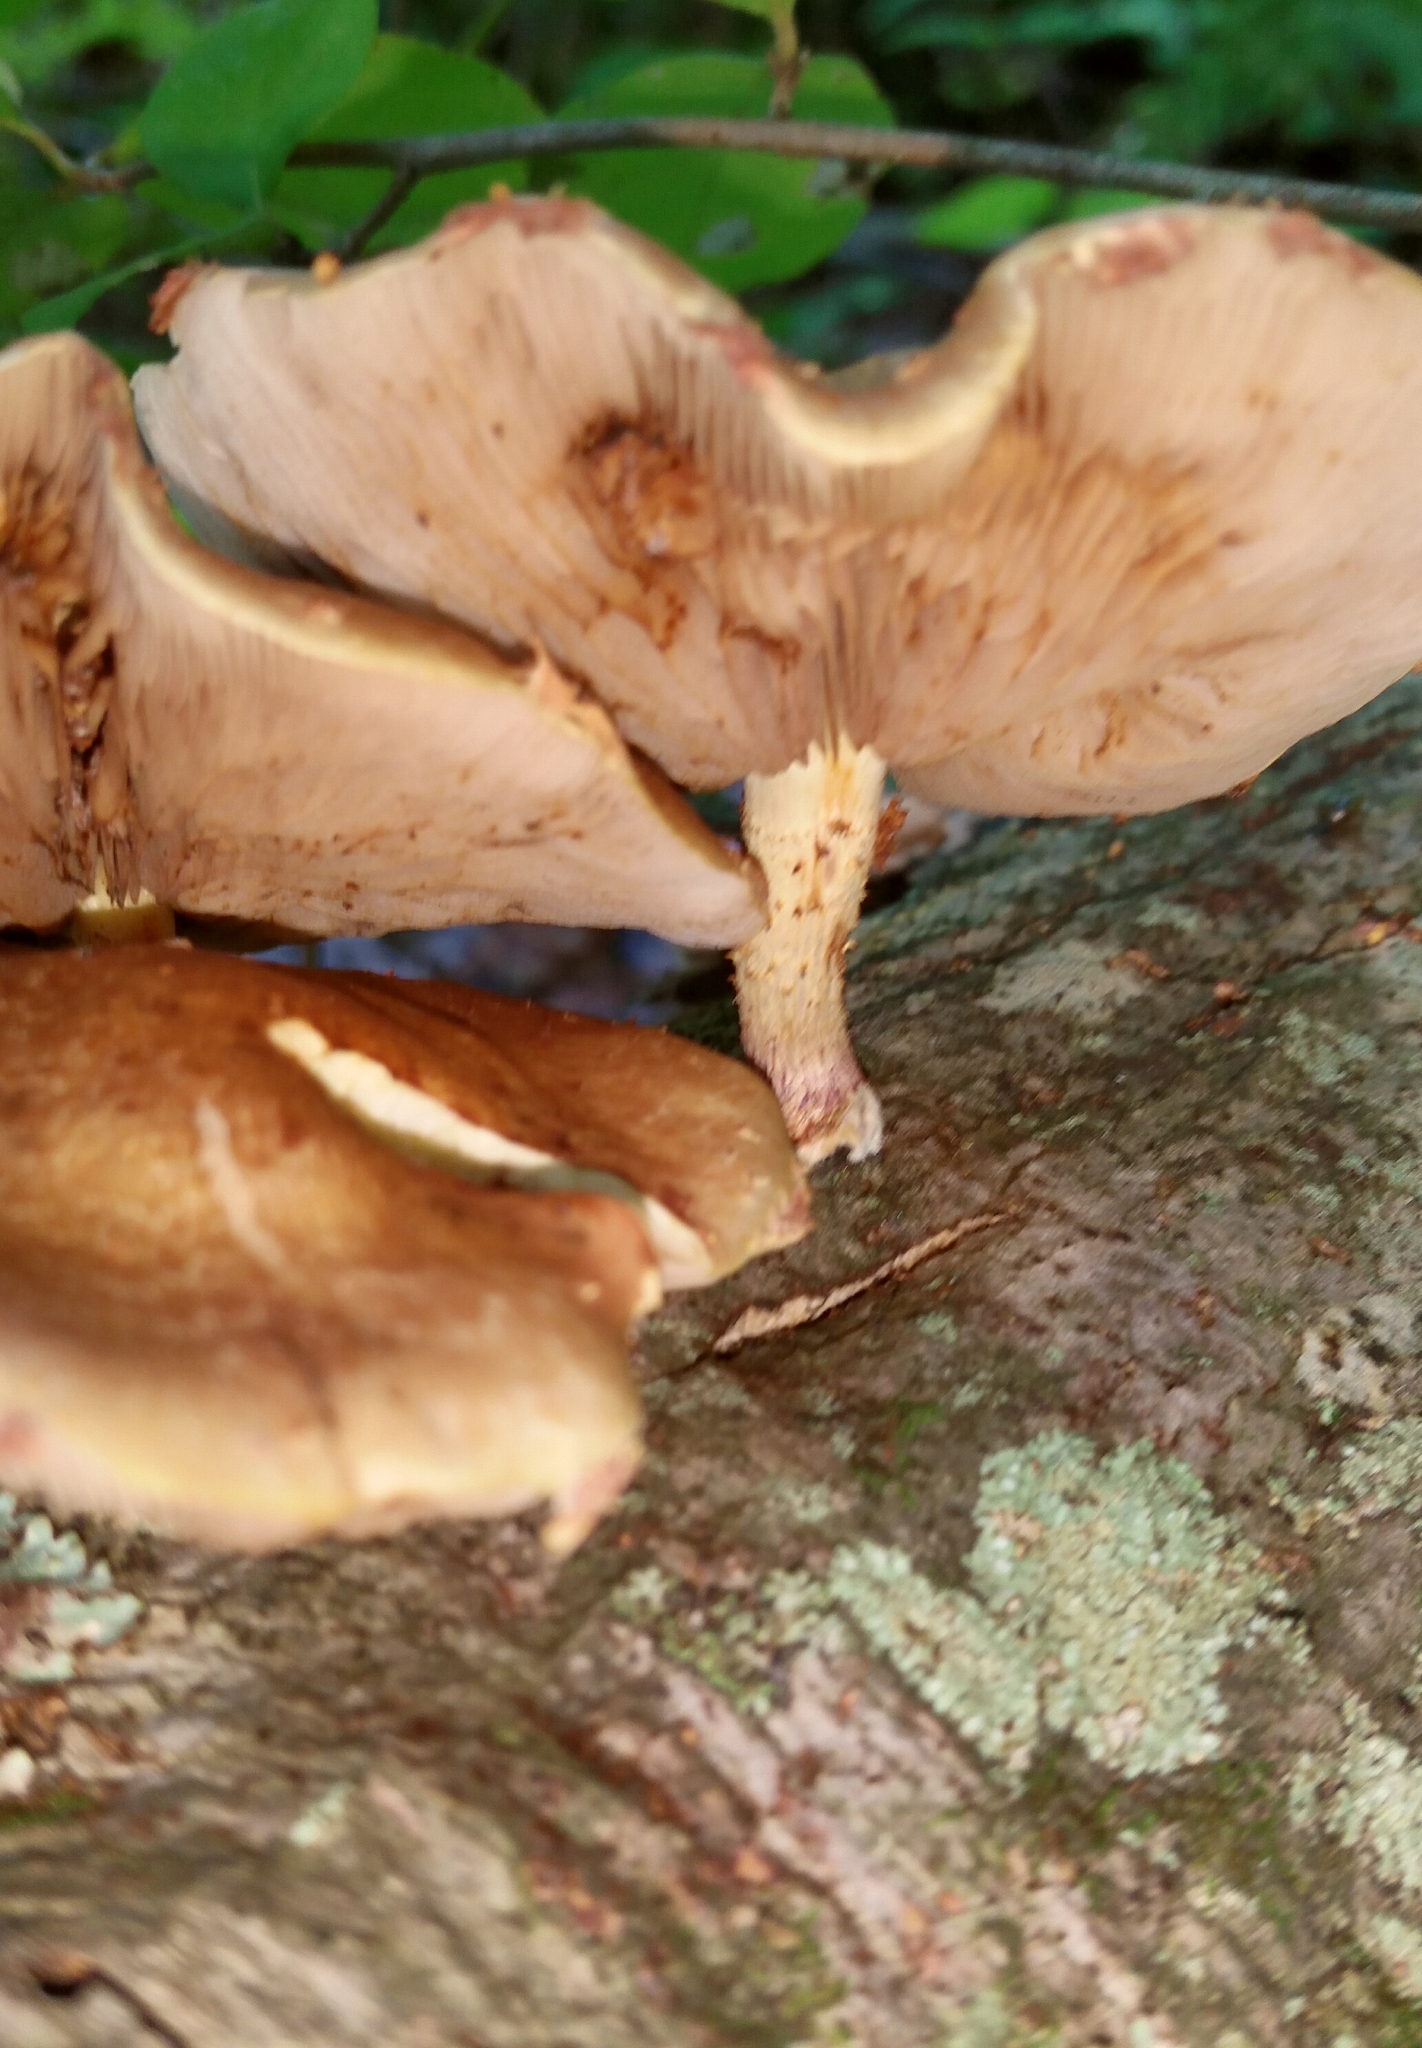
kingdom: Fungi
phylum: Basidiomycota
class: Agaricomycetes
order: Agaricales
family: Strophariaceae
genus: Pholiota
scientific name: Pholiota polychroa
